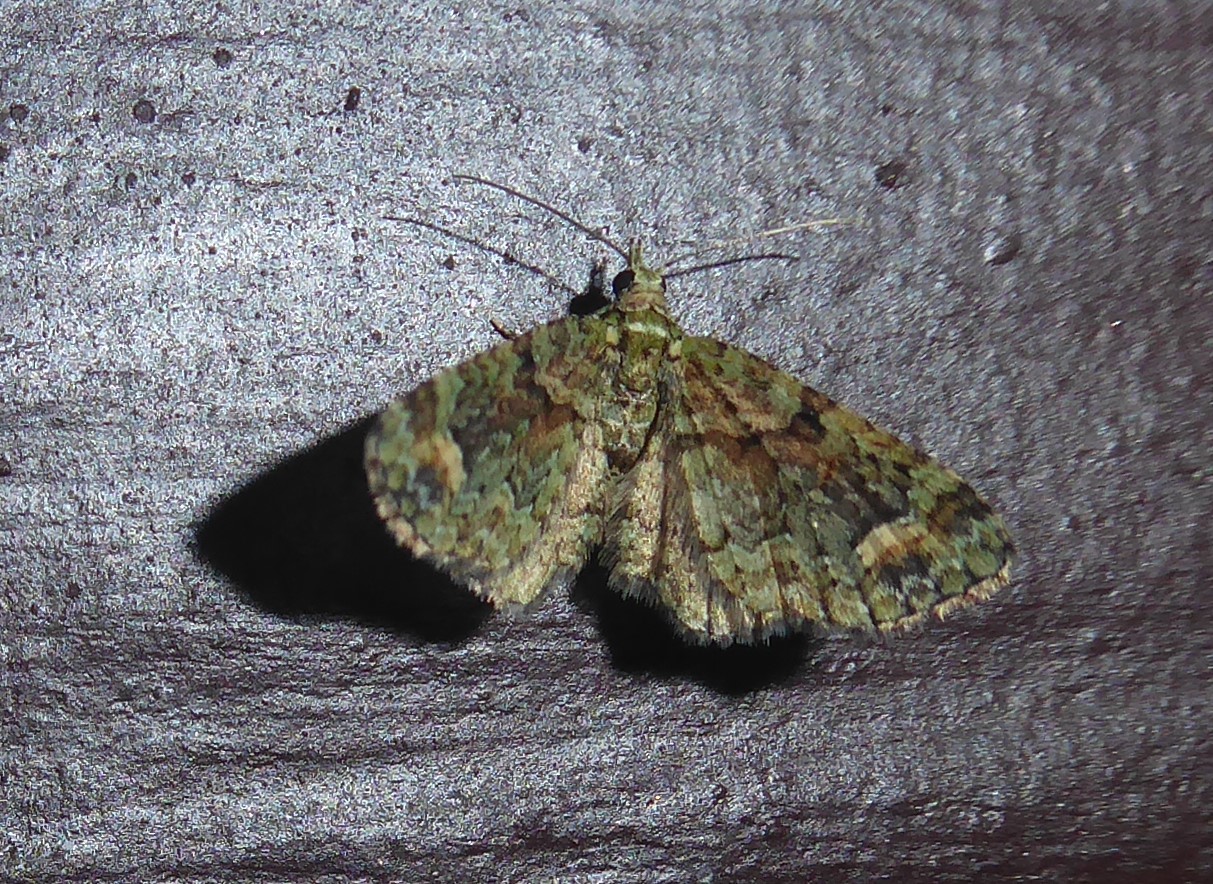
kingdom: Animalia
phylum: Arthropoda
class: Insecta
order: Lepidoptera
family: Geometridae
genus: Idaea
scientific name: Idaea mutanda
